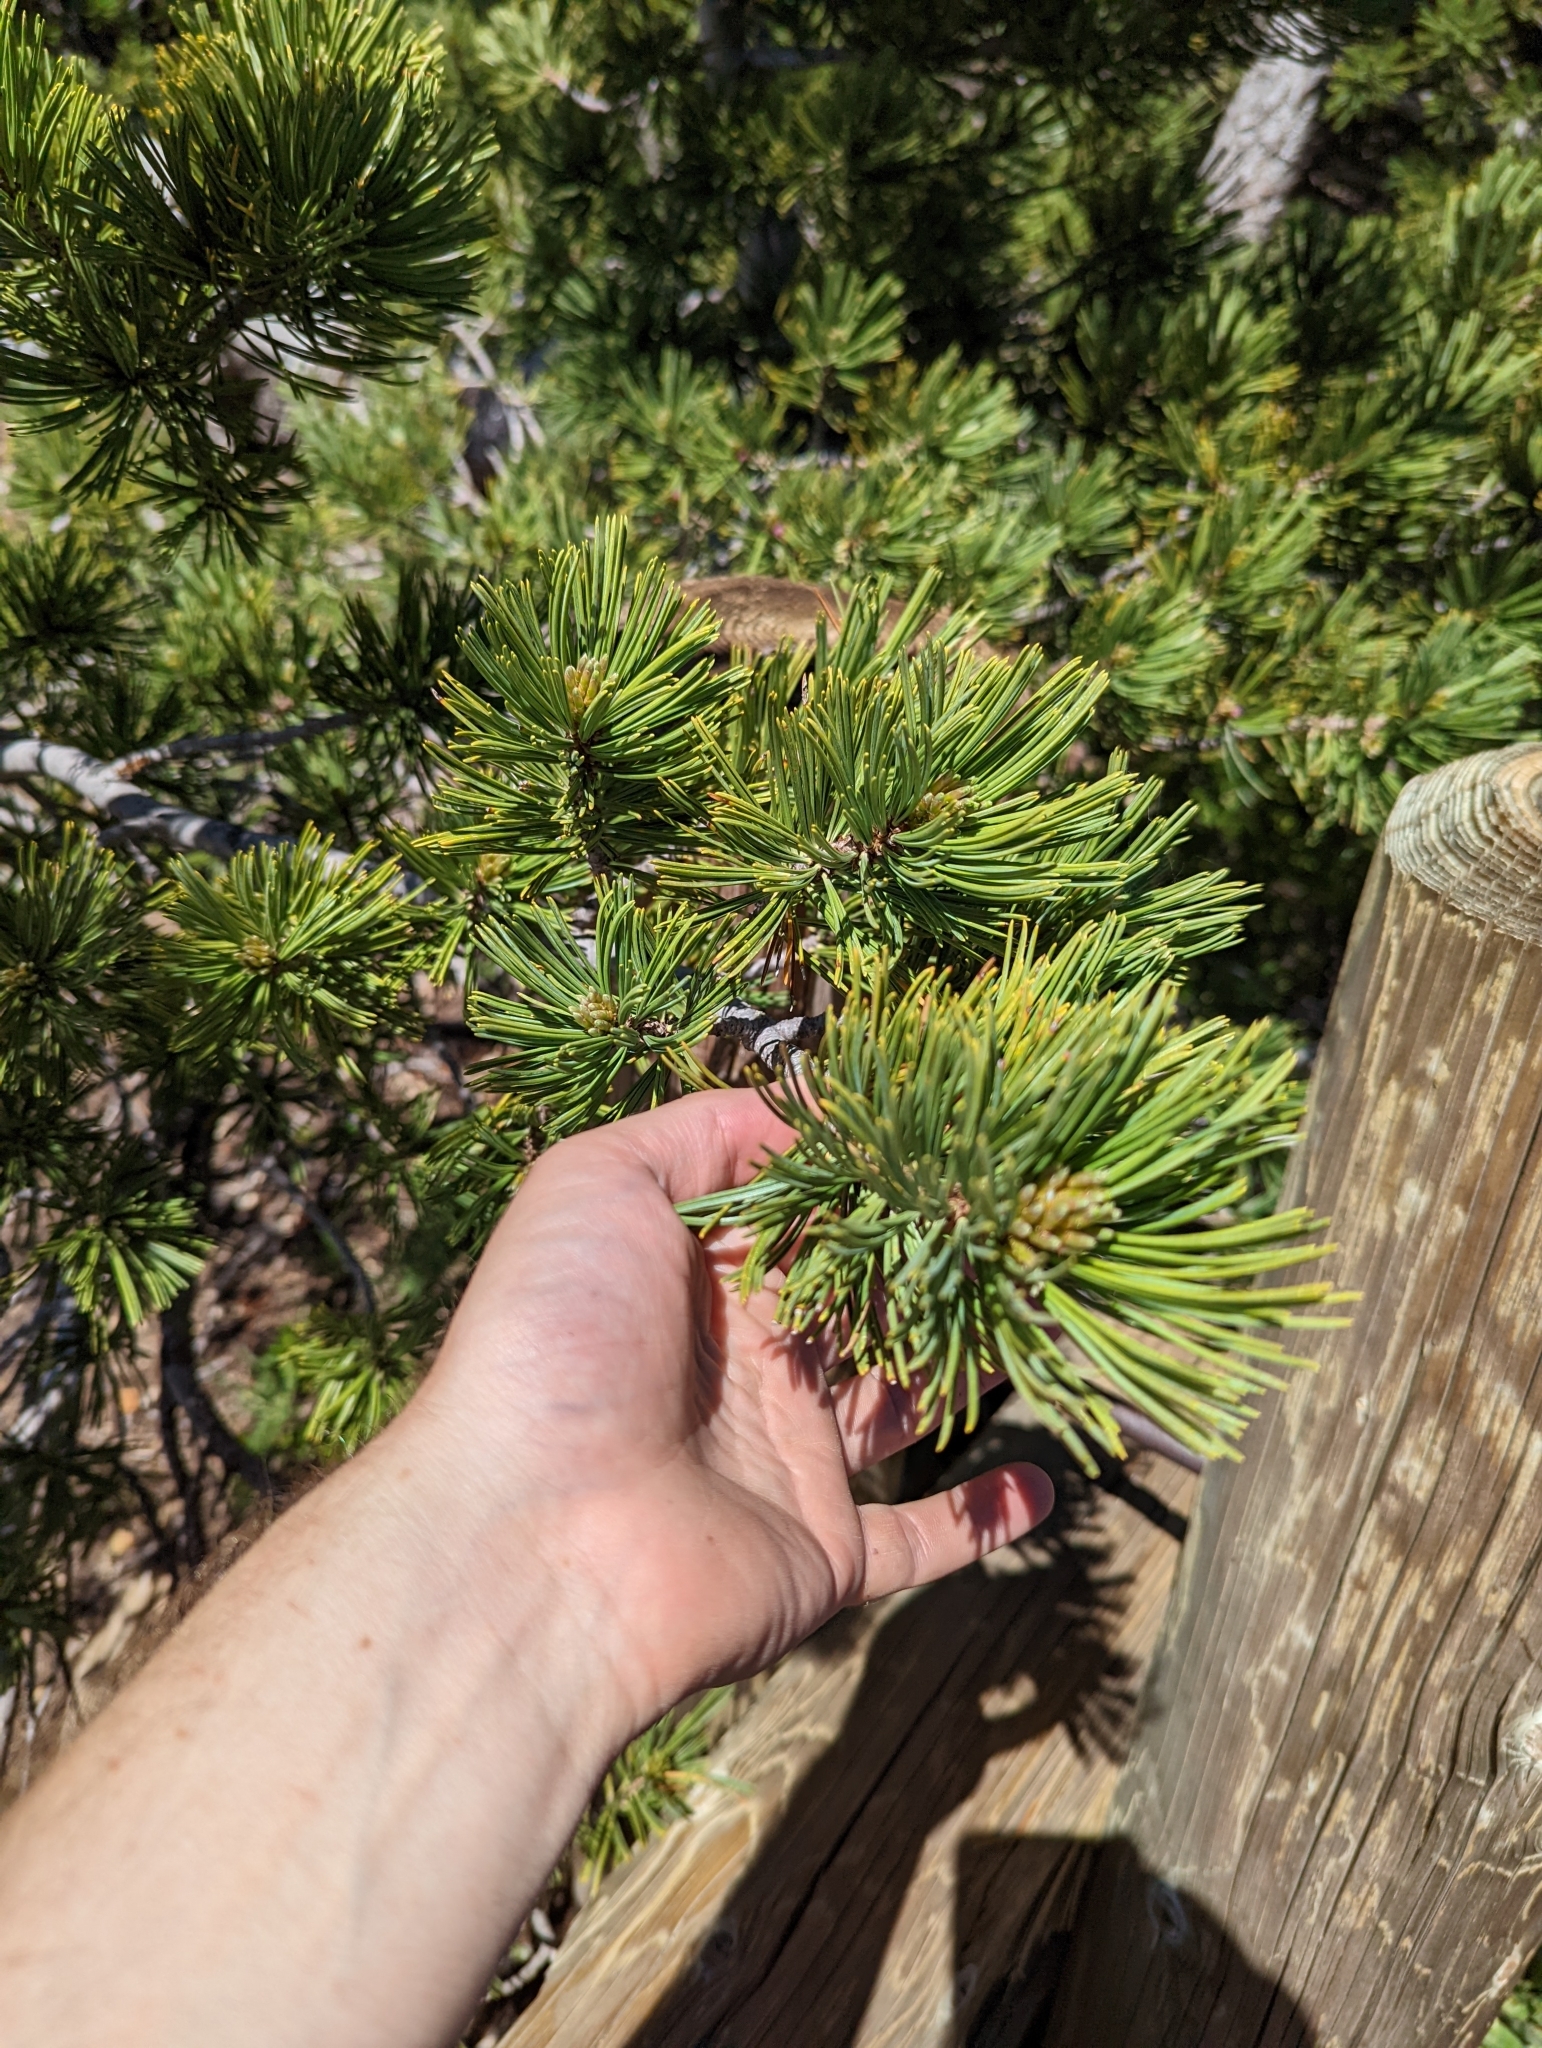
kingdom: Plantae
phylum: Tracheophyta
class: Pinopsida
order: Pinales
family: Pinaceae
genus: Pinus
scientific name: Pinus albicaulis
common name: Whitebark pine
